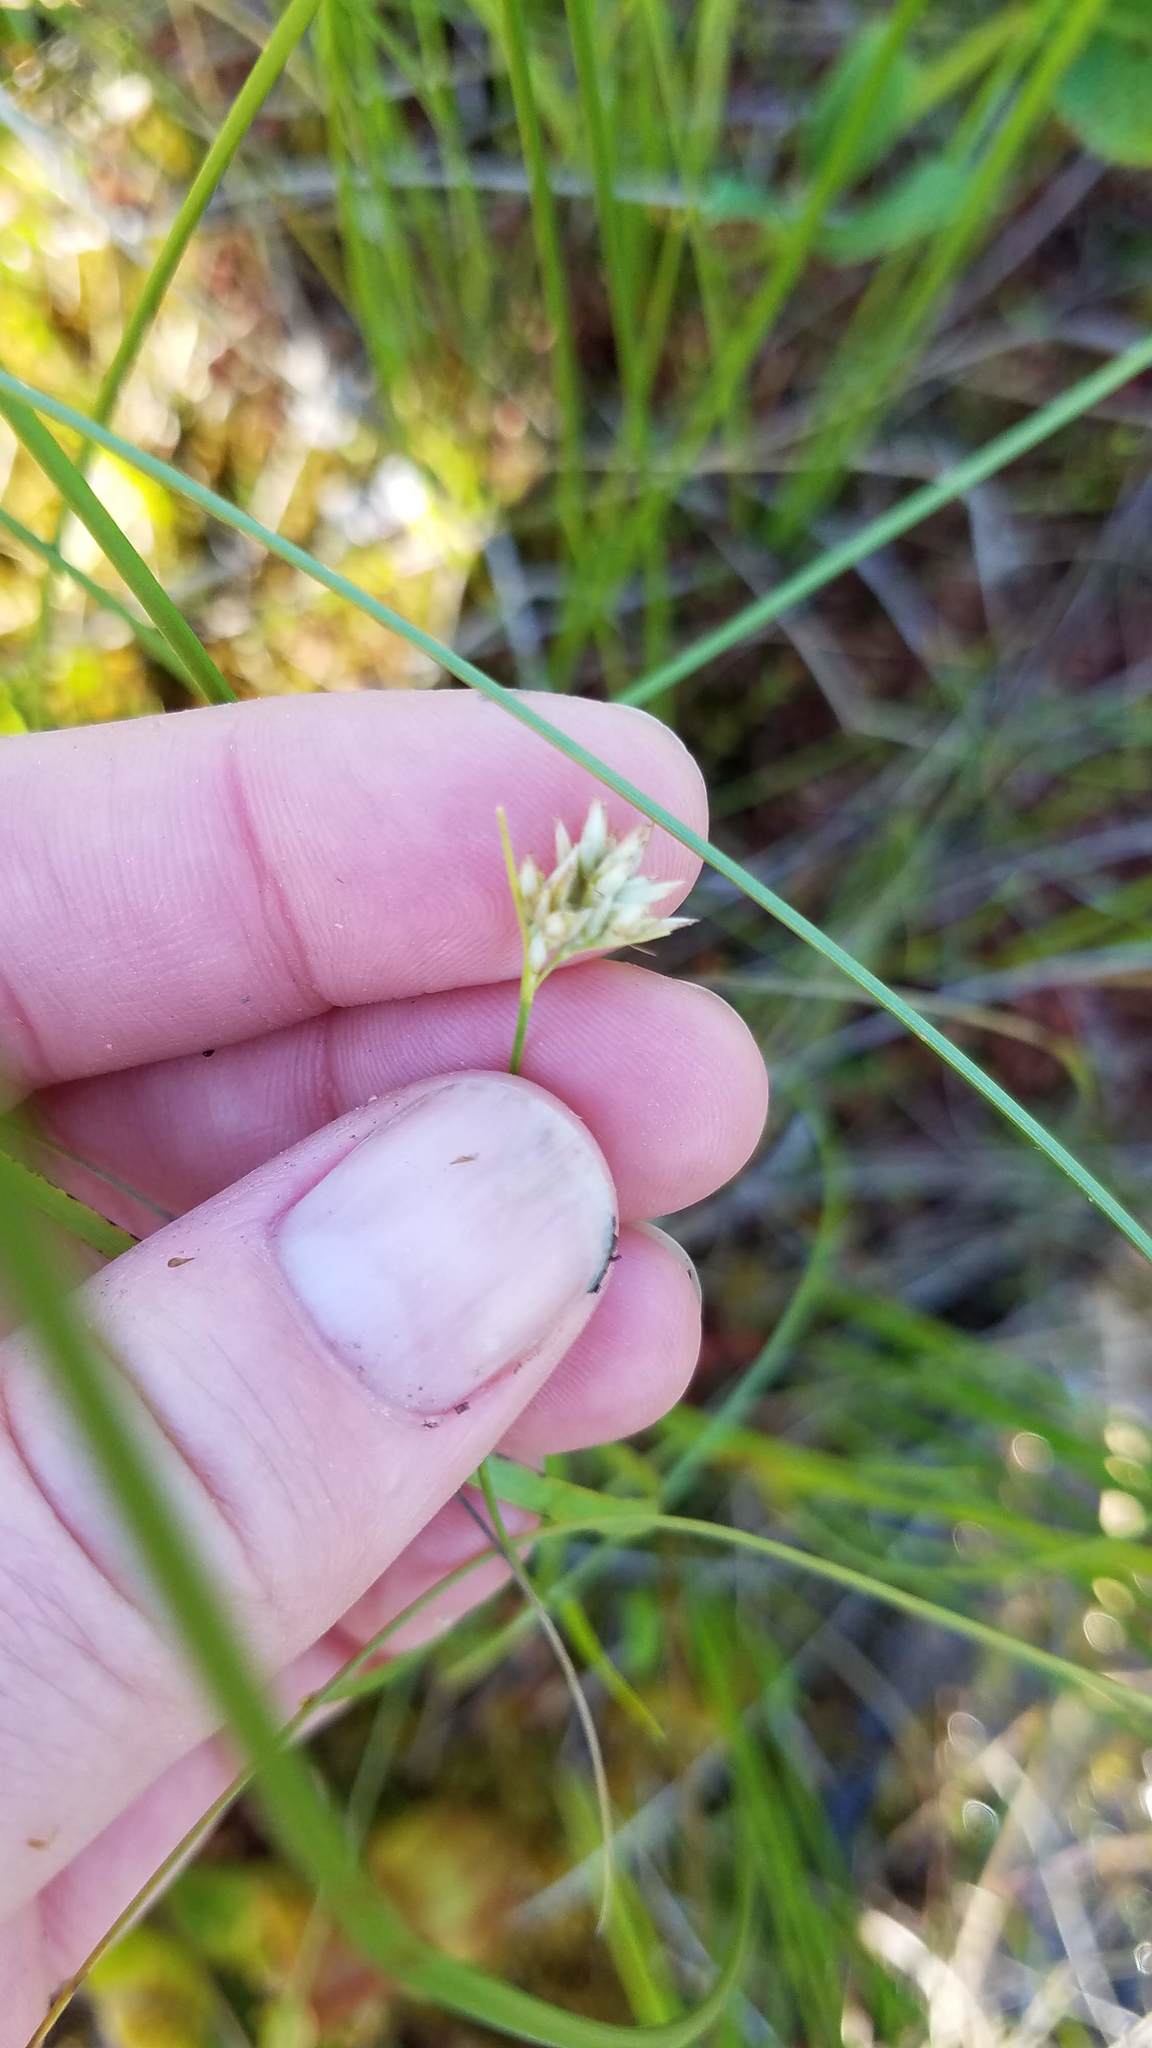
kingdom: Plantae
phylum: Tracheophyta
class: Liliopsida
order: Poales
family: Cyperaceae
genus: Rhynchospora
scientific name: Rhynchospora alba
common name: White beak-sedge
